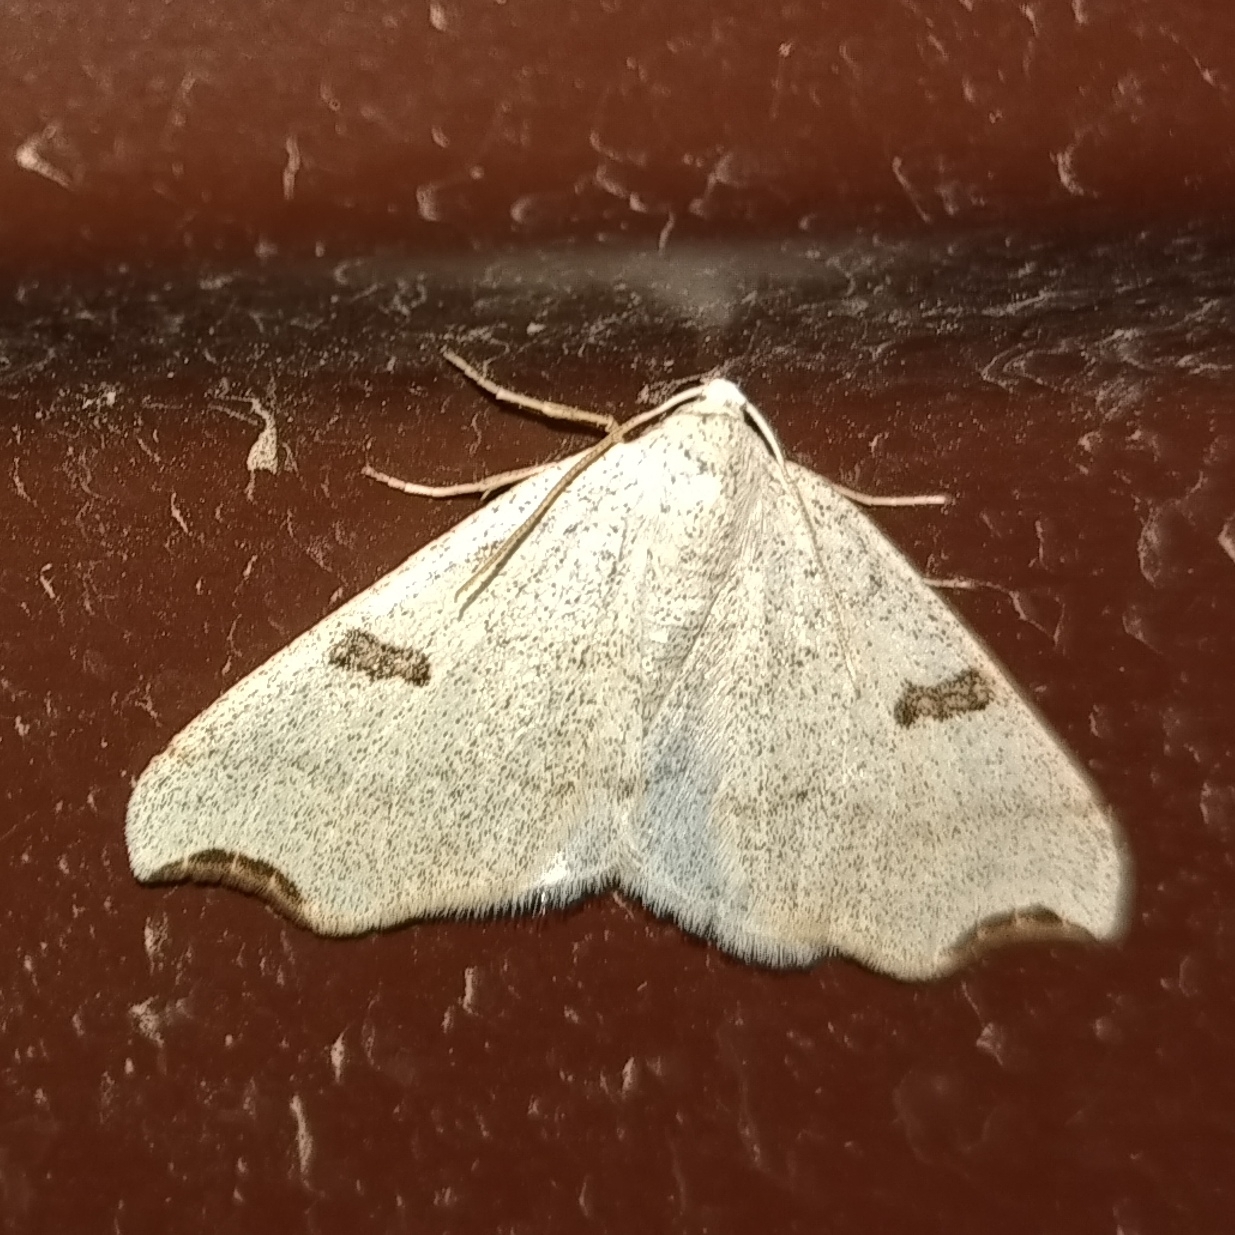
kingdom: Animalia
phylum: Arthropoda
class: Insecta
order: Lepidoptera
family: Geometridae
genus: Eilicrinia
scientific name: Eilicrinia cordiaria
